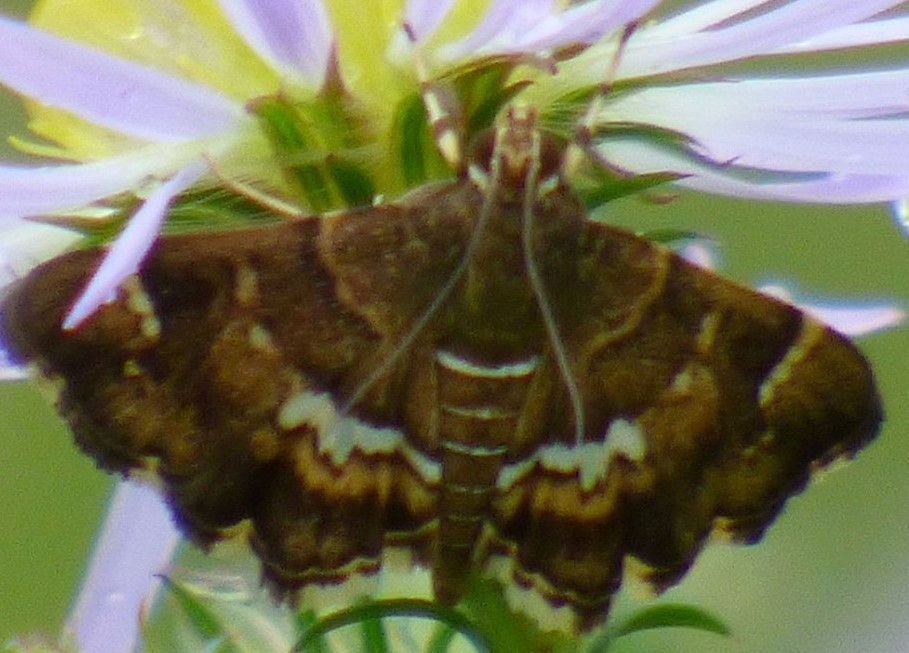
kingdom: Animalia
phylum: Arthropoda
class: Insecta
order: Lepidoptera
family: Crambidae
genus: Hymenia
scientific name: Hymenia perspectalis
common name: Spotted beet webworm
